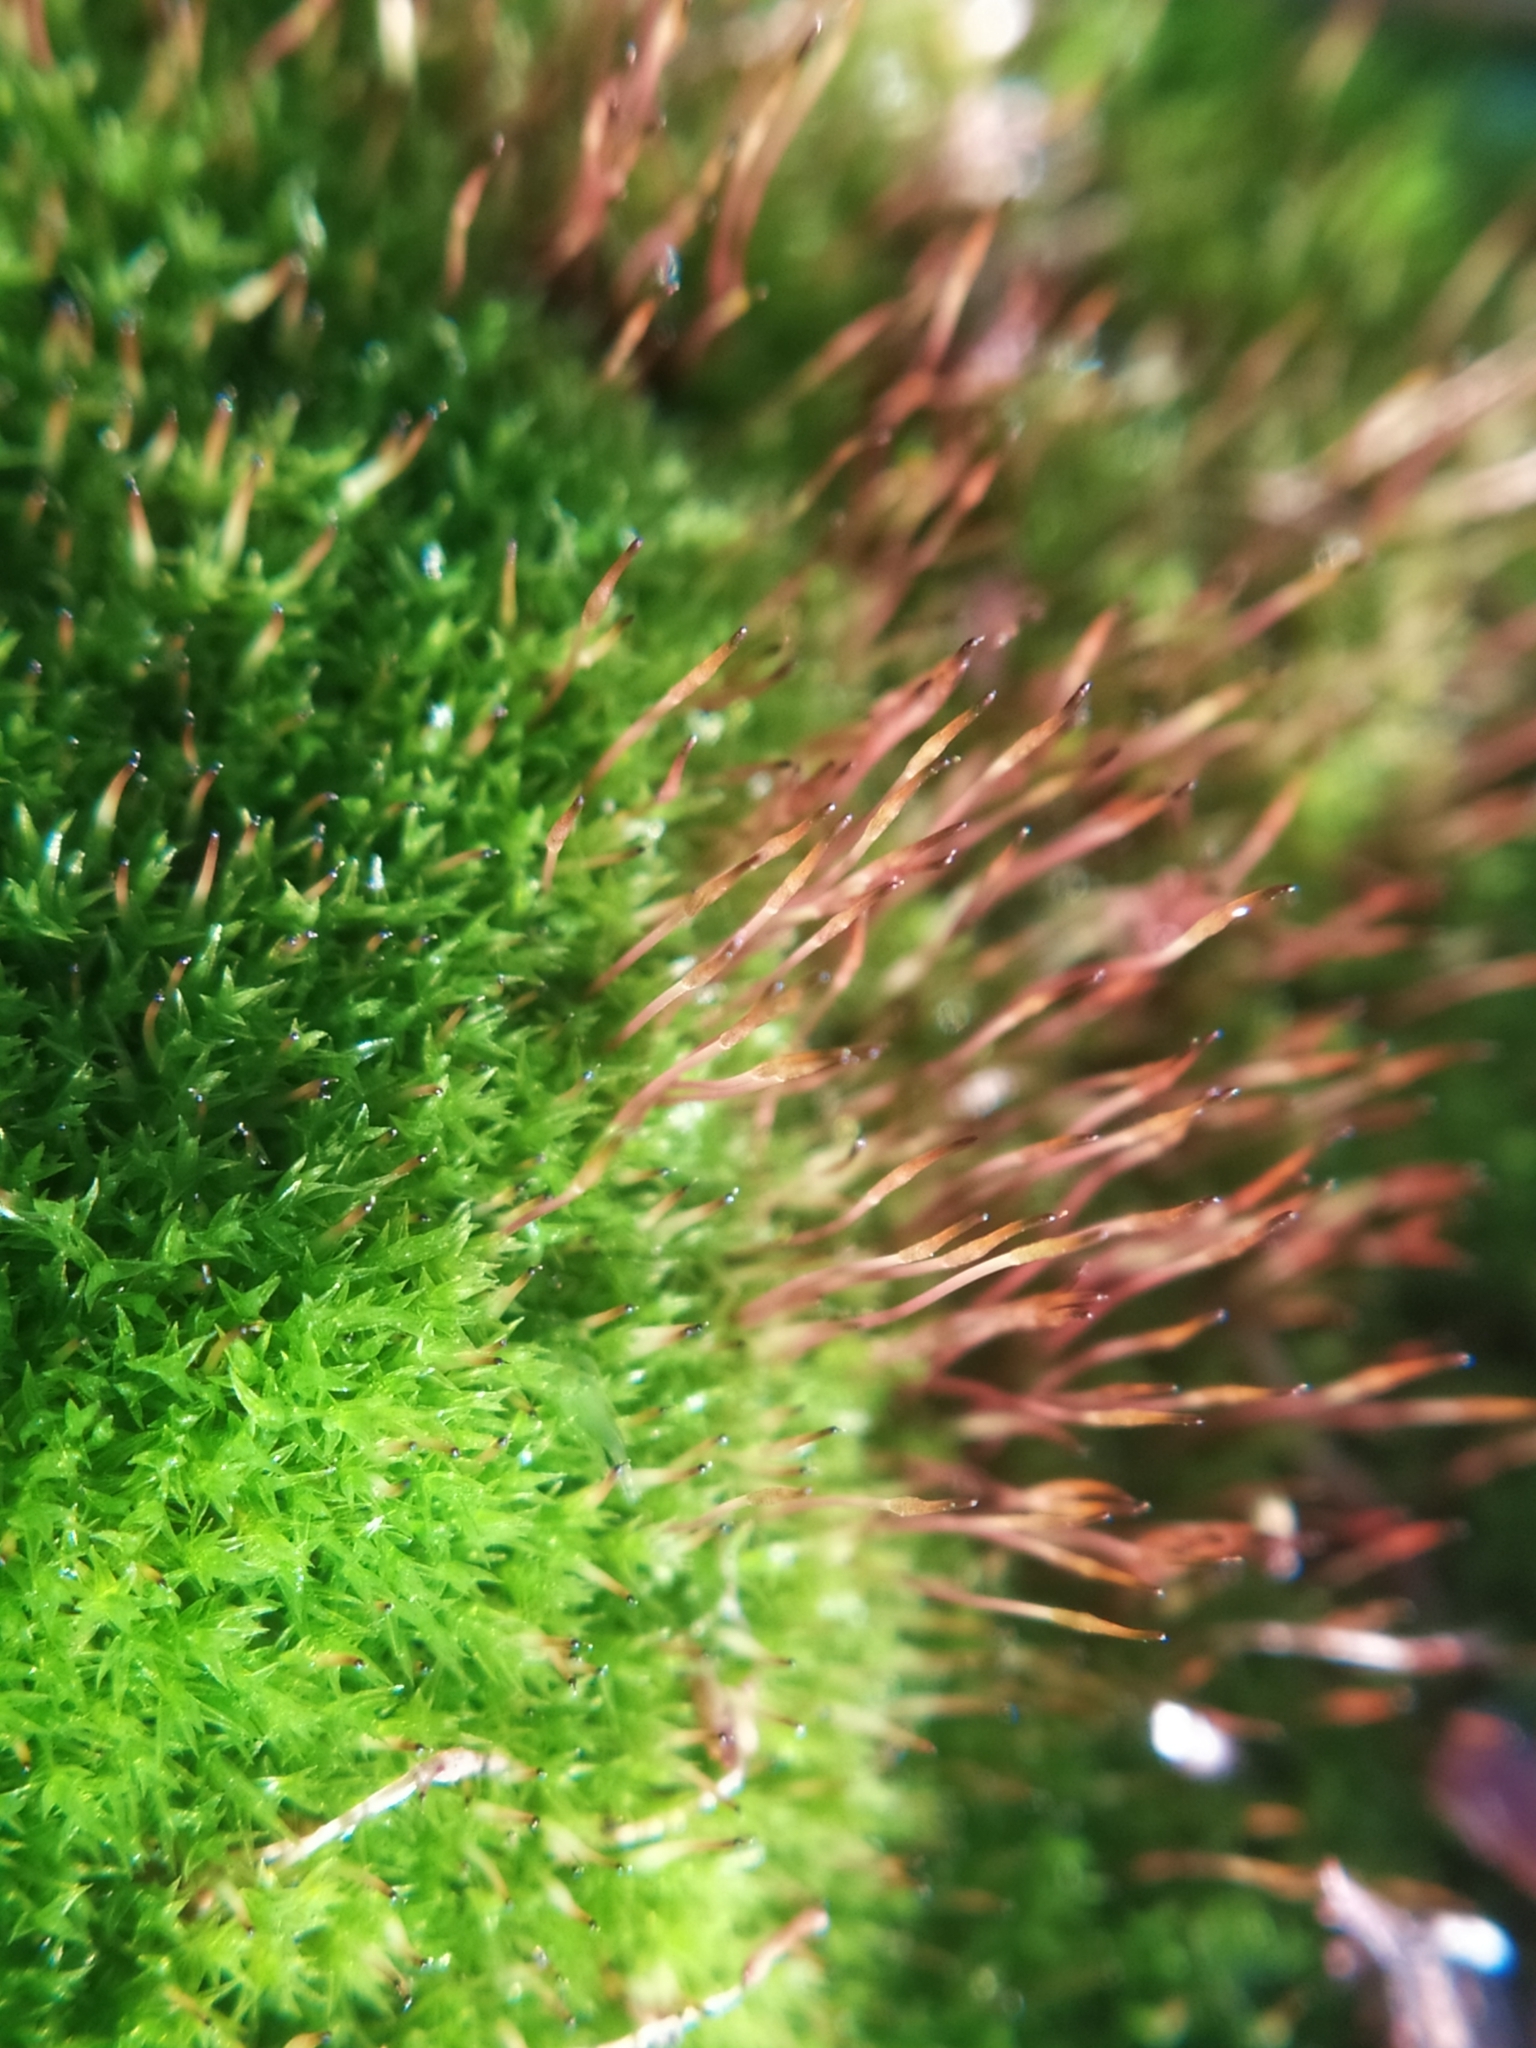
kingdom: Plantae
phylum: Bryophyta
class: Bryopsida
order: Dicranales
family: Ditrichaceae
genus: Ceratodon
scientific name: Ceratodon purpureus
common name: Redshank
